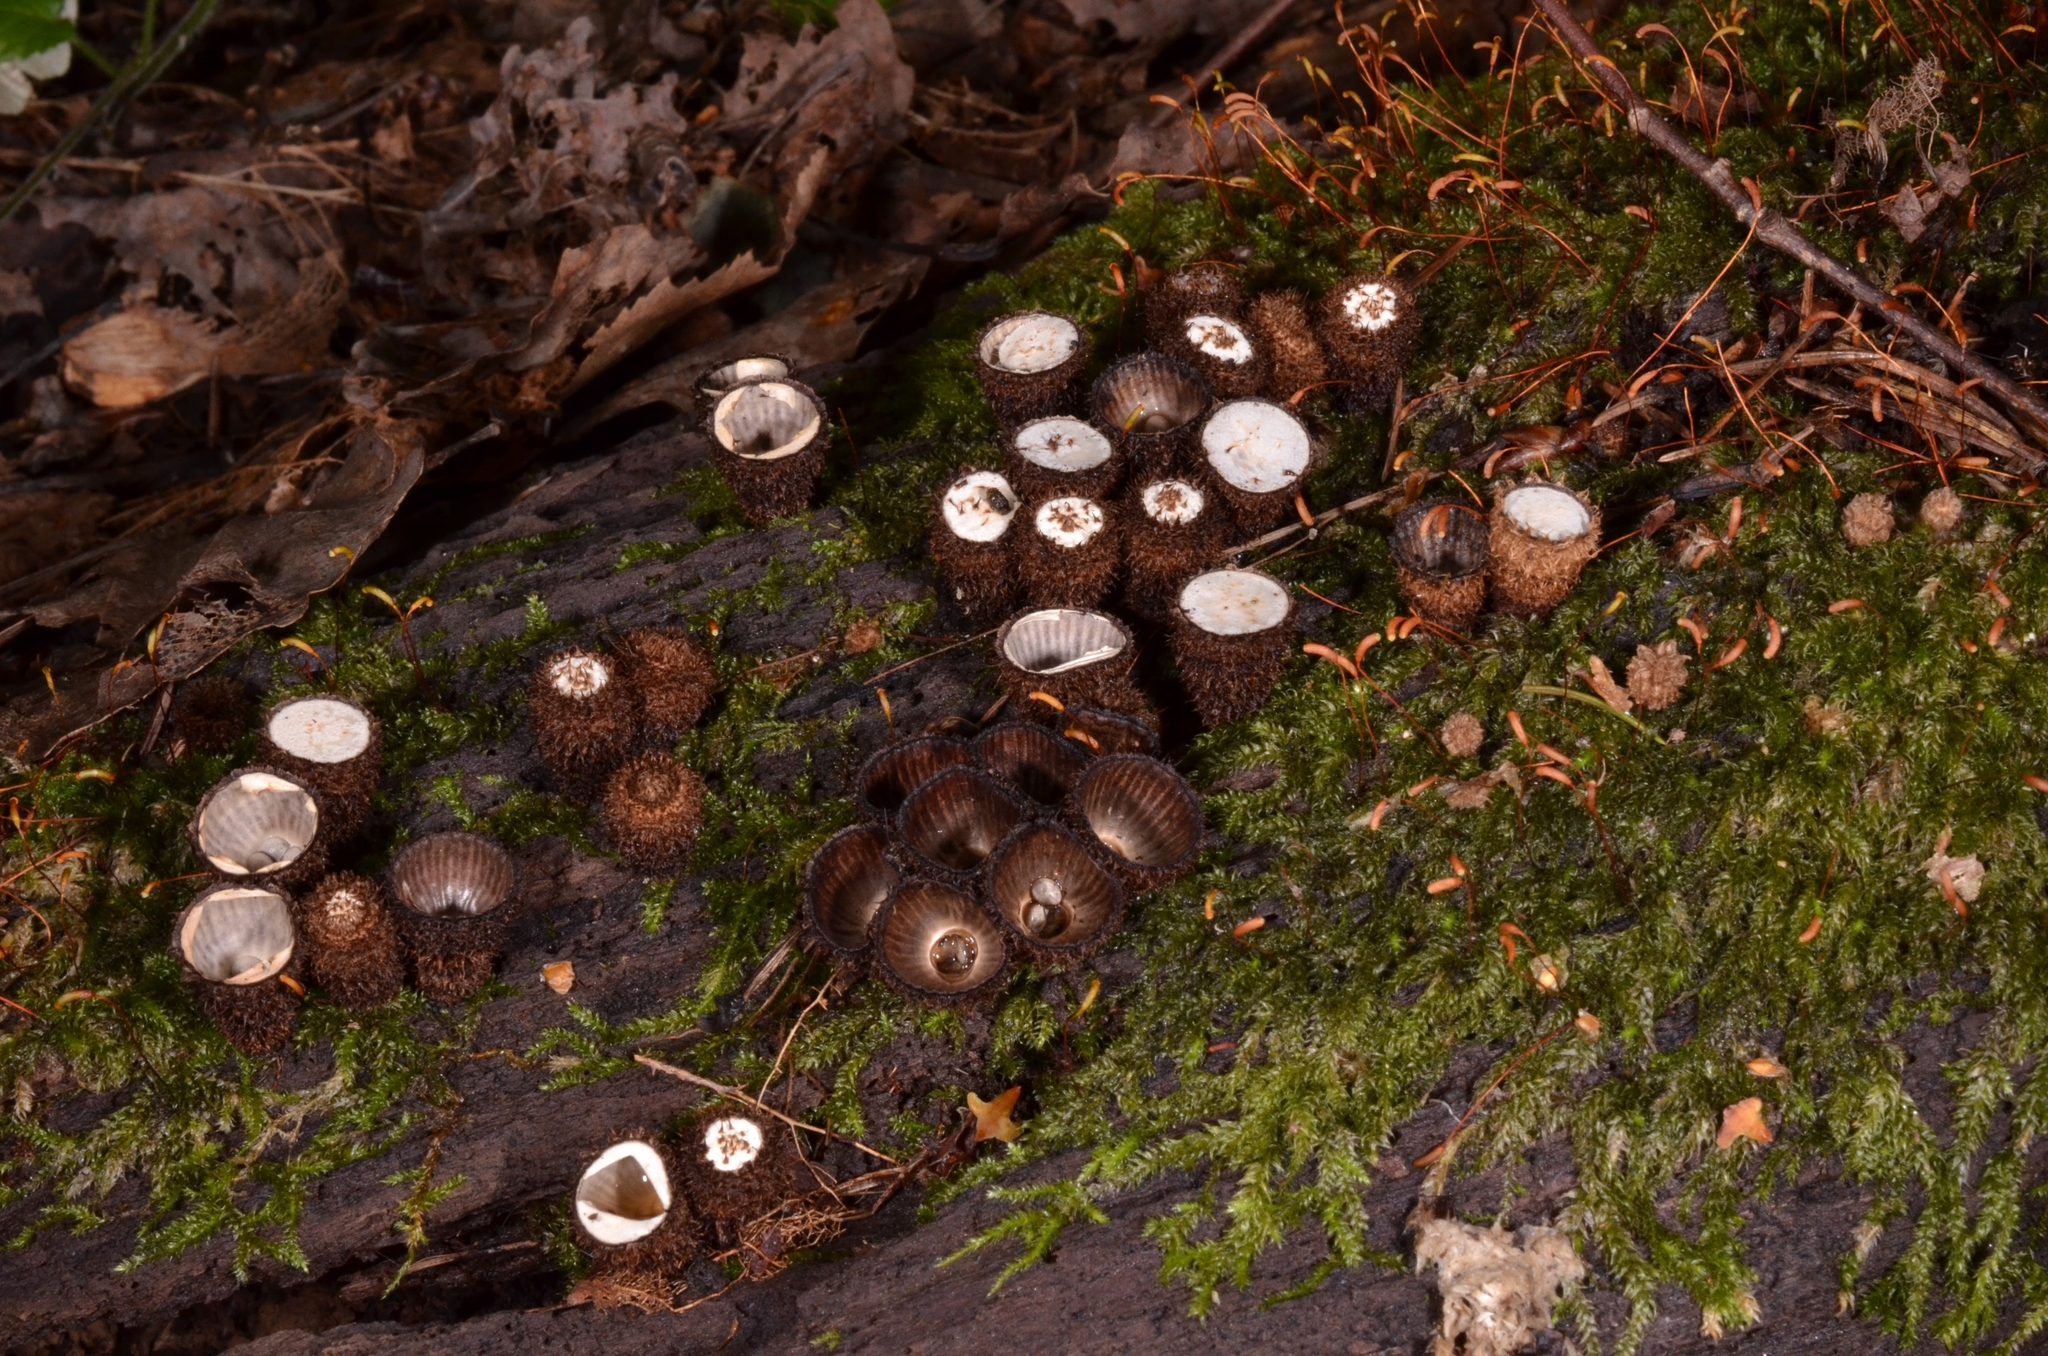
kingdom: Fungi
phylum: Basidiomycota
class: Agaricomycetes
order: Agaricales
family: Agaricaceae
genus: Cyathus
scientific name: Cyathus striatus
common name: Fluted bird's nest
